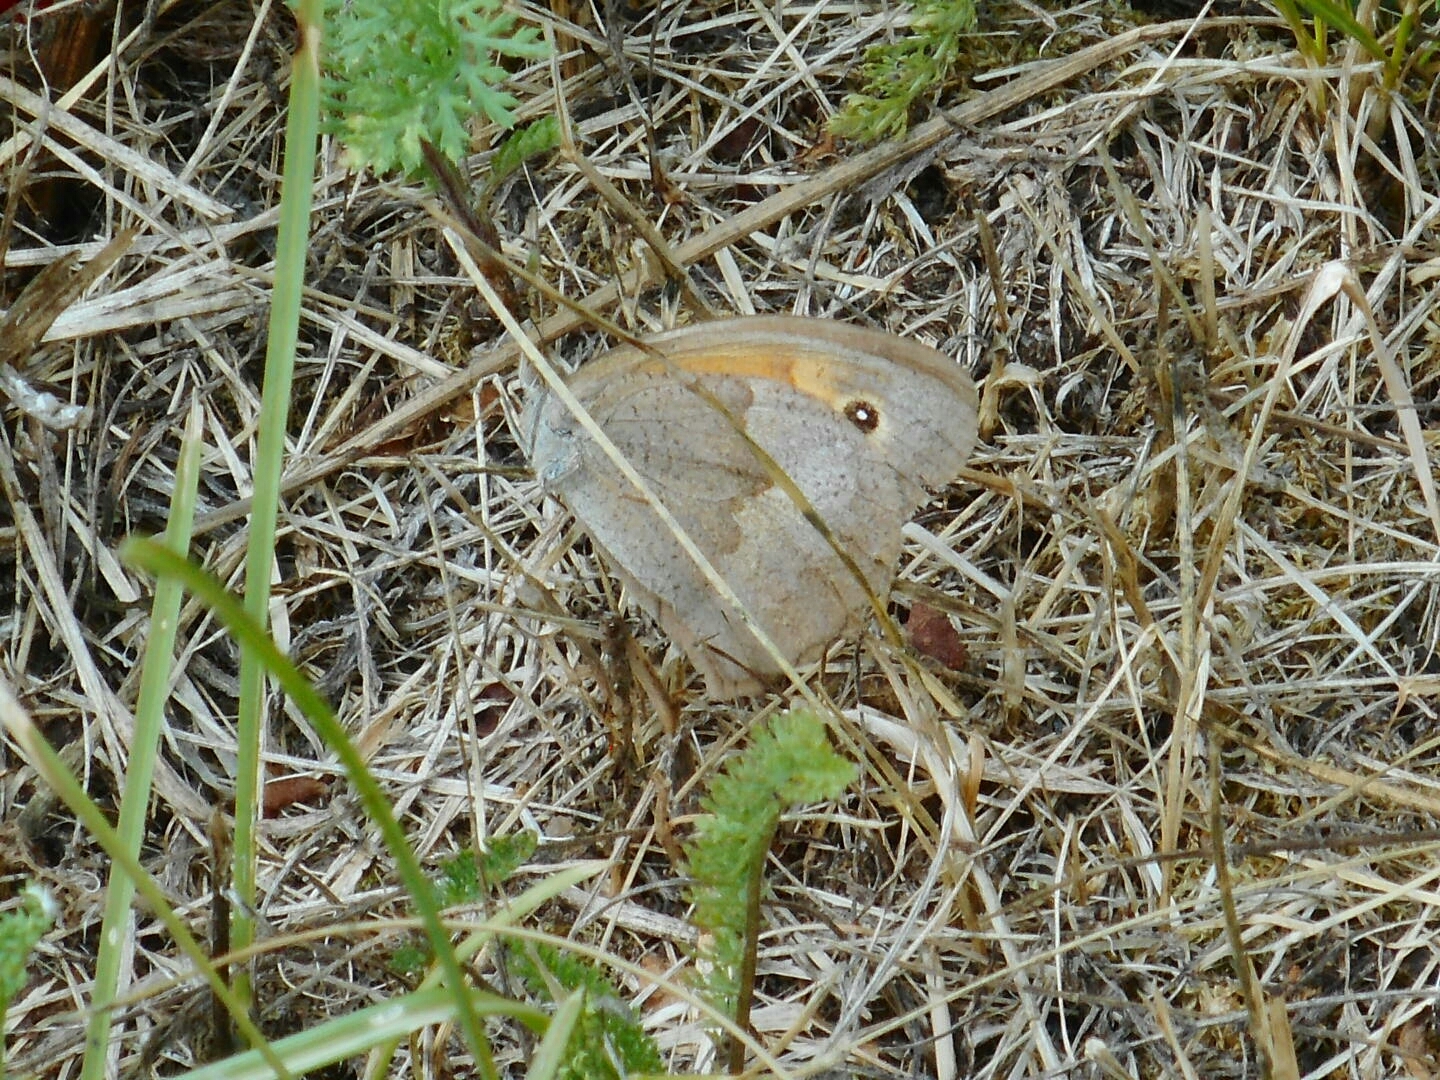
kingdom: Animalia
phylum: Arthropoda
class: Insecta
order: Lepidoptera
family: Nymphalidae
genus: Maniola
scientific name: Maniola jurtina
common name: Meadow brown
